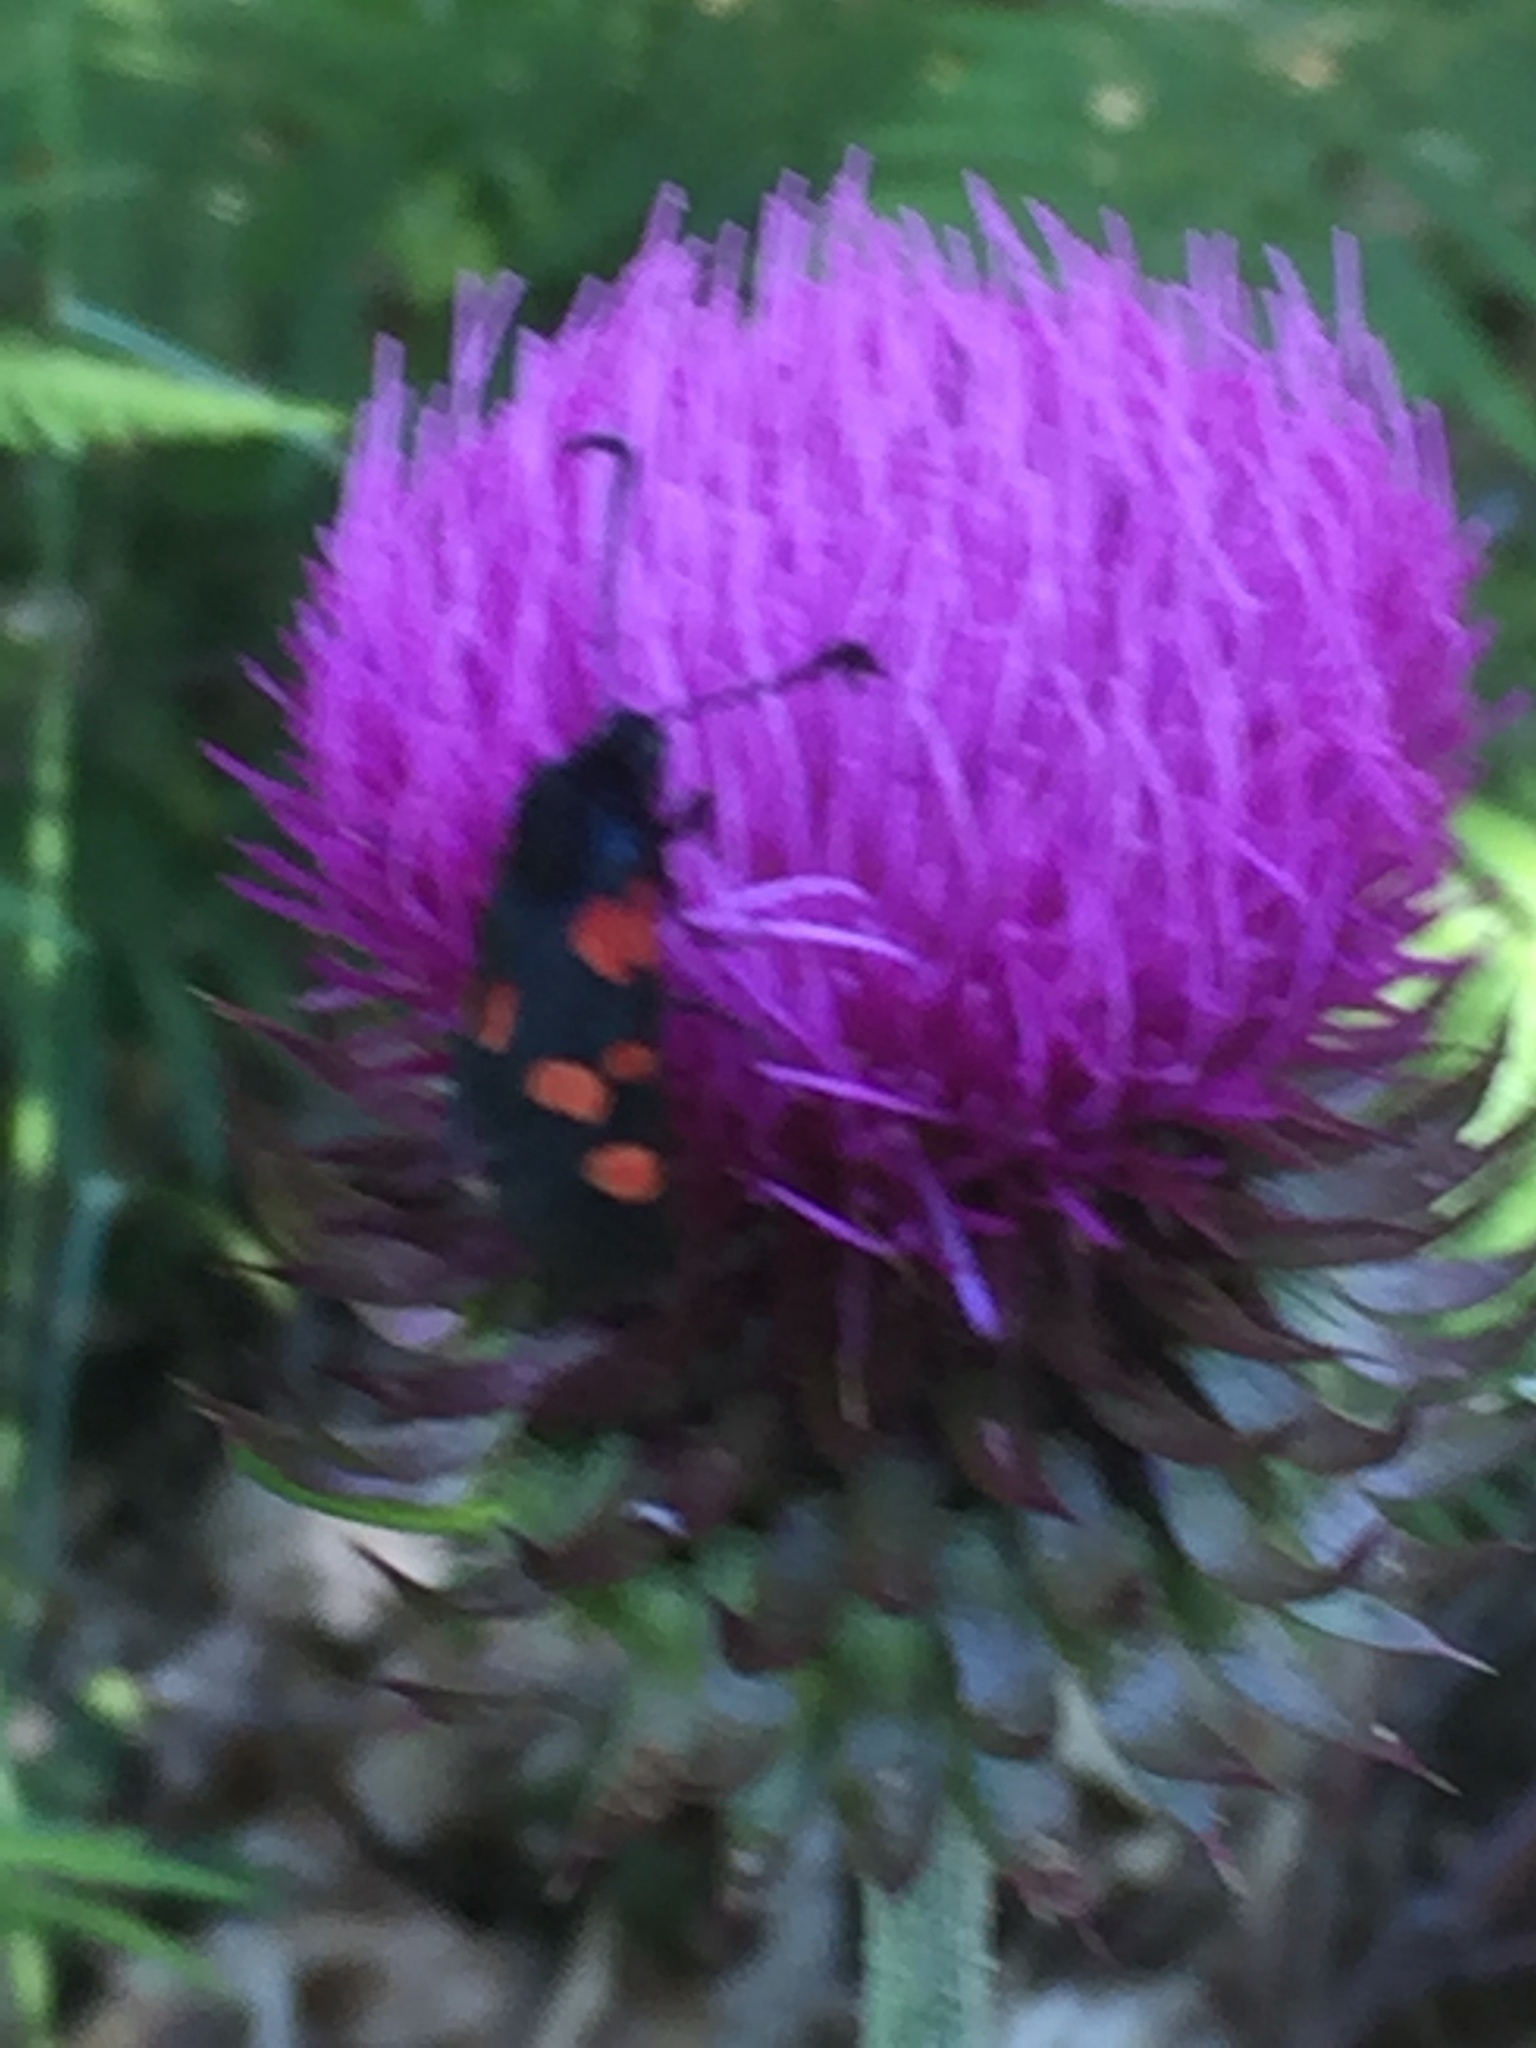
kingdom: Plantae
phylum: Tracheophyta
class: Magnoliopsida
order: Asterales
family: Asteraceae
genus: Carduus
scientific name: Carduus platypus
